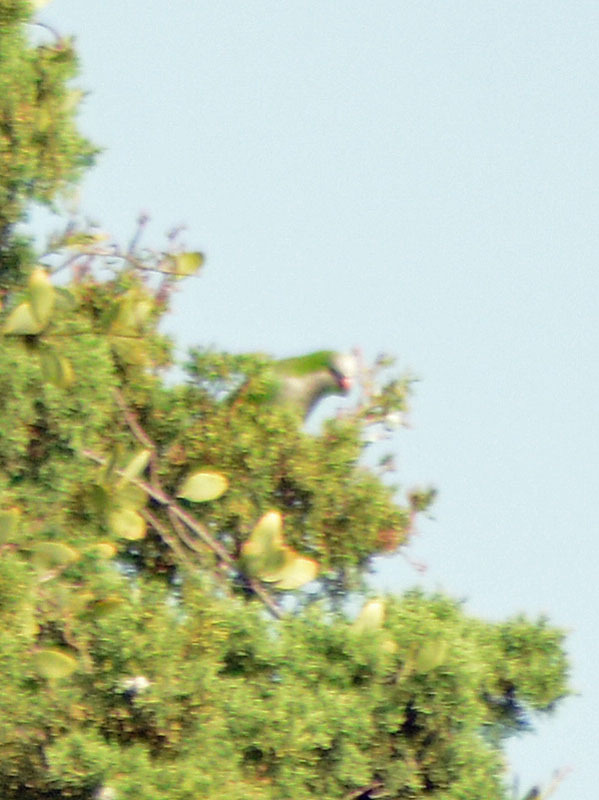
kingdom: Animalia
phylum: Chordata
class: Aves
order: Psittaciformes
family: Psittacidae
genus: Myiopsitta
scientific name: Myiopsitta monachus
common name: Monk parakeet
